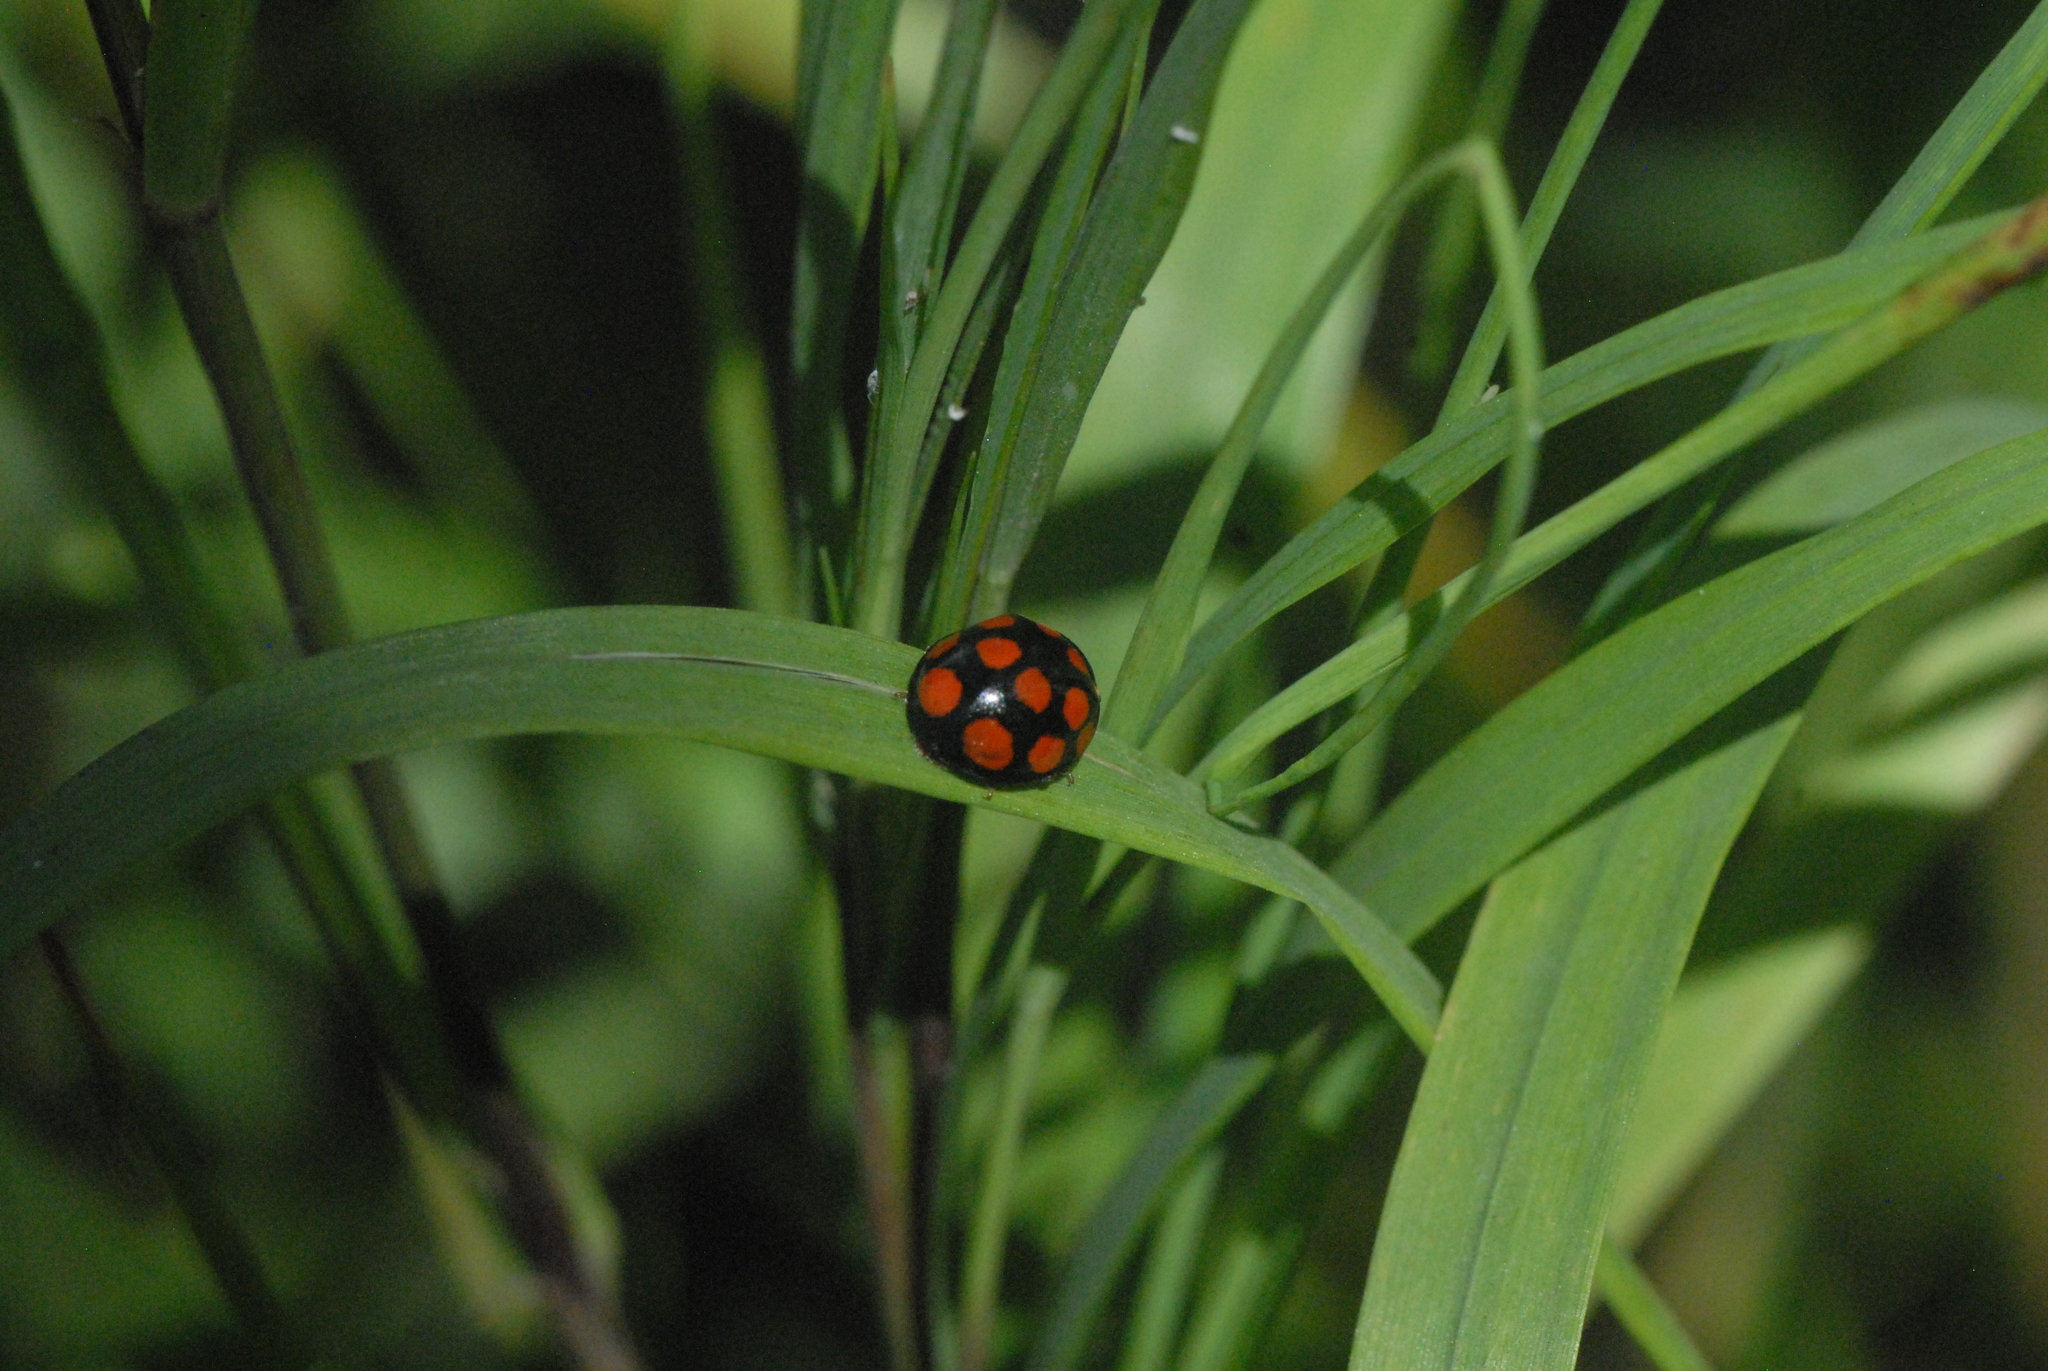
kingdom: Animalia
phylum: Arthropoda
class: Insecta
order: Coleoptera
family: Coccinellidae
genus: Harmonia
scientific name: Harmonia axyridis
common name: Harlequin ladybird
